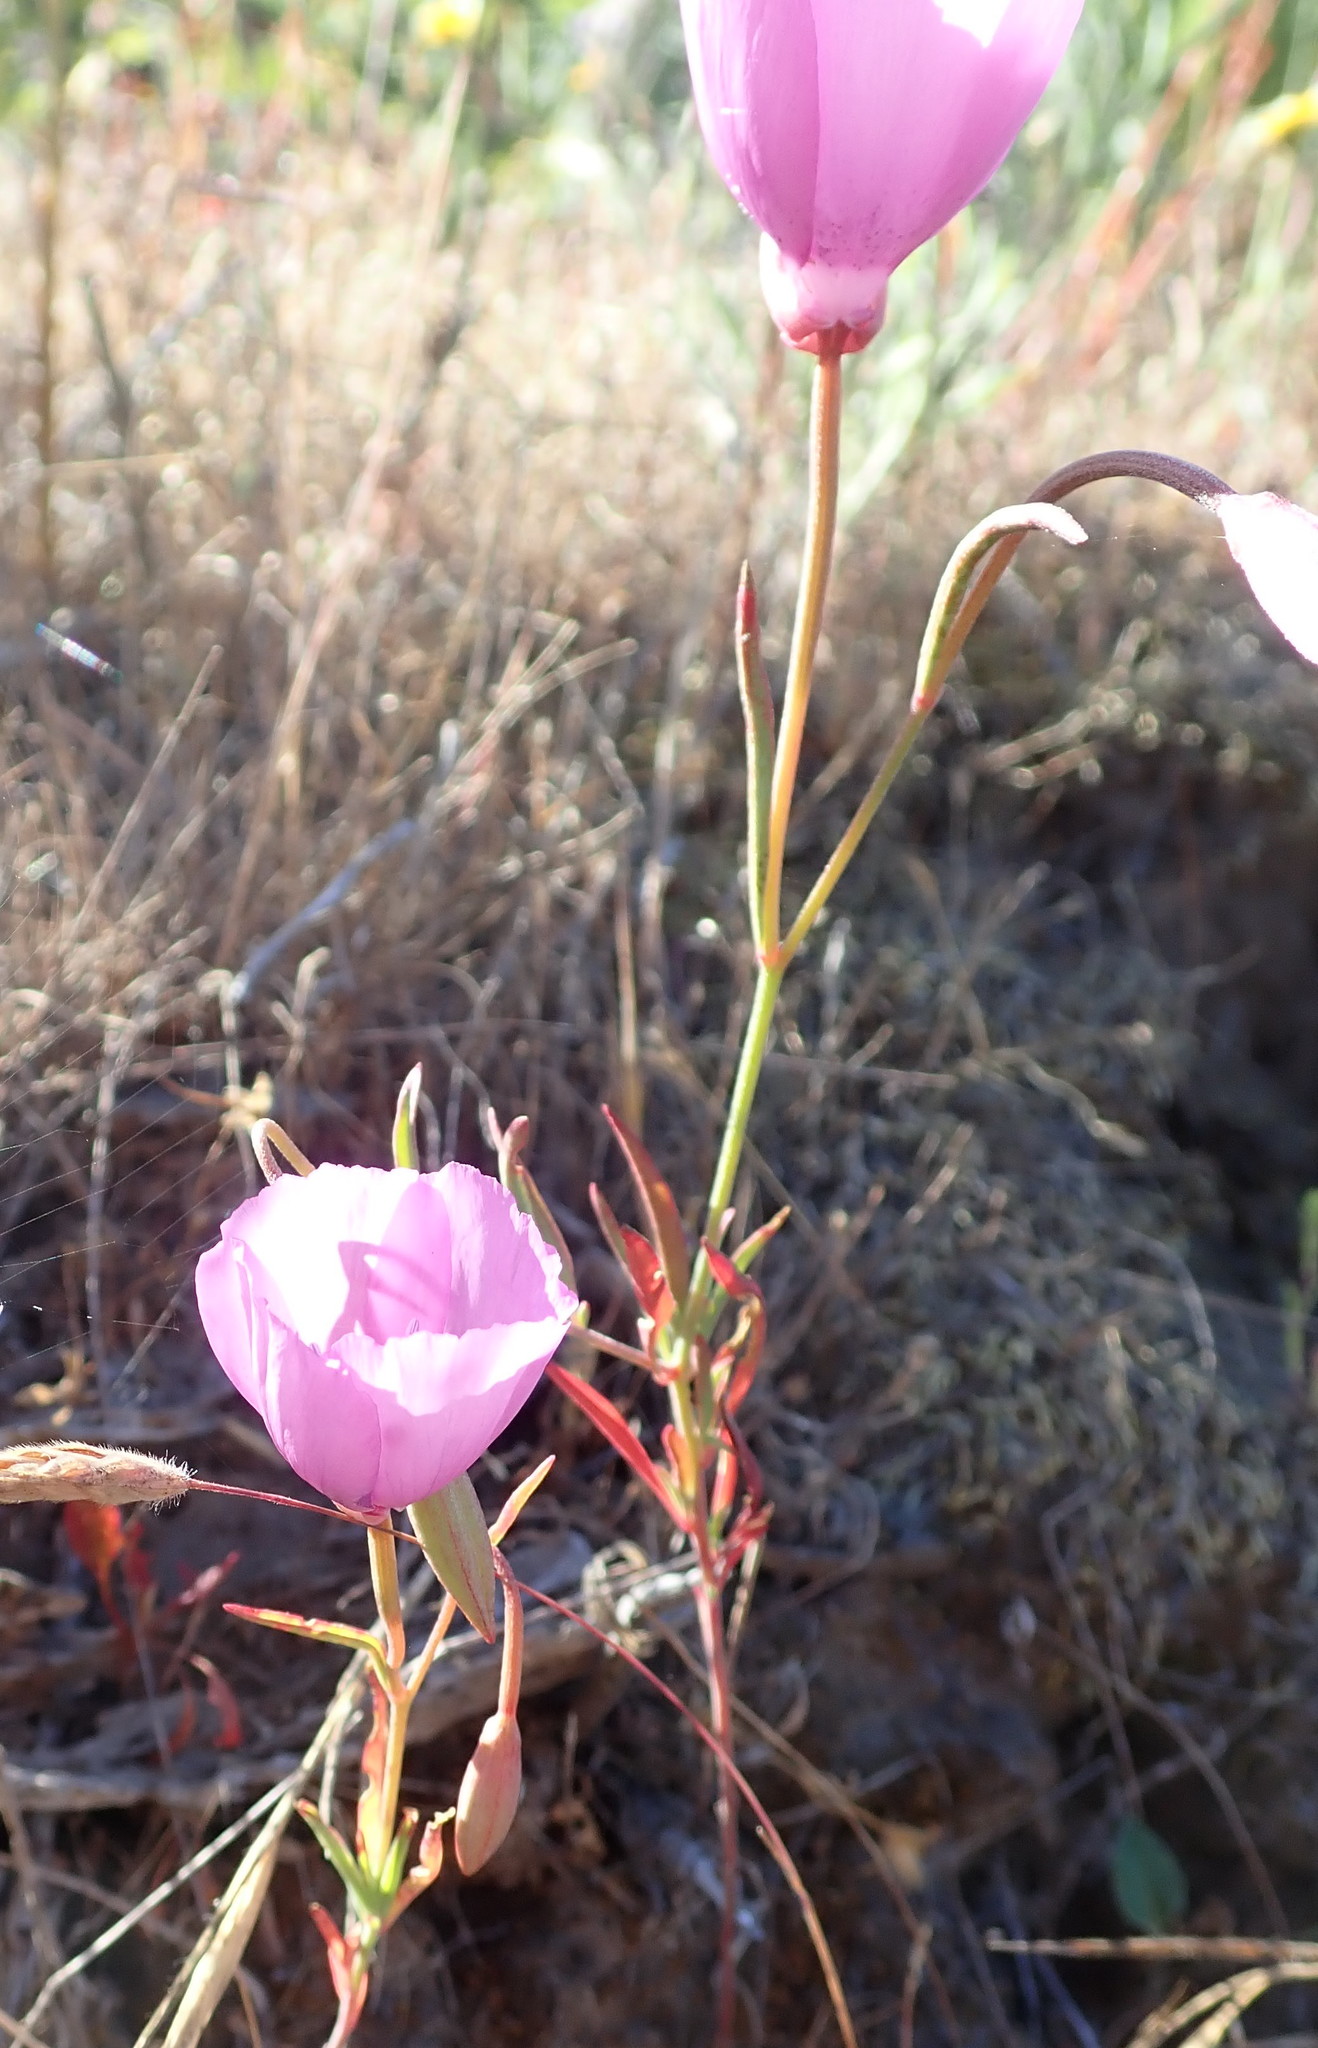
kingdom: Plantae
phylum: Tracheophyta
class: Magnoliopsida
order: Myrtales
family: Onagraceae
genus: Clarkia
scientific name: Clarkia lewisii
